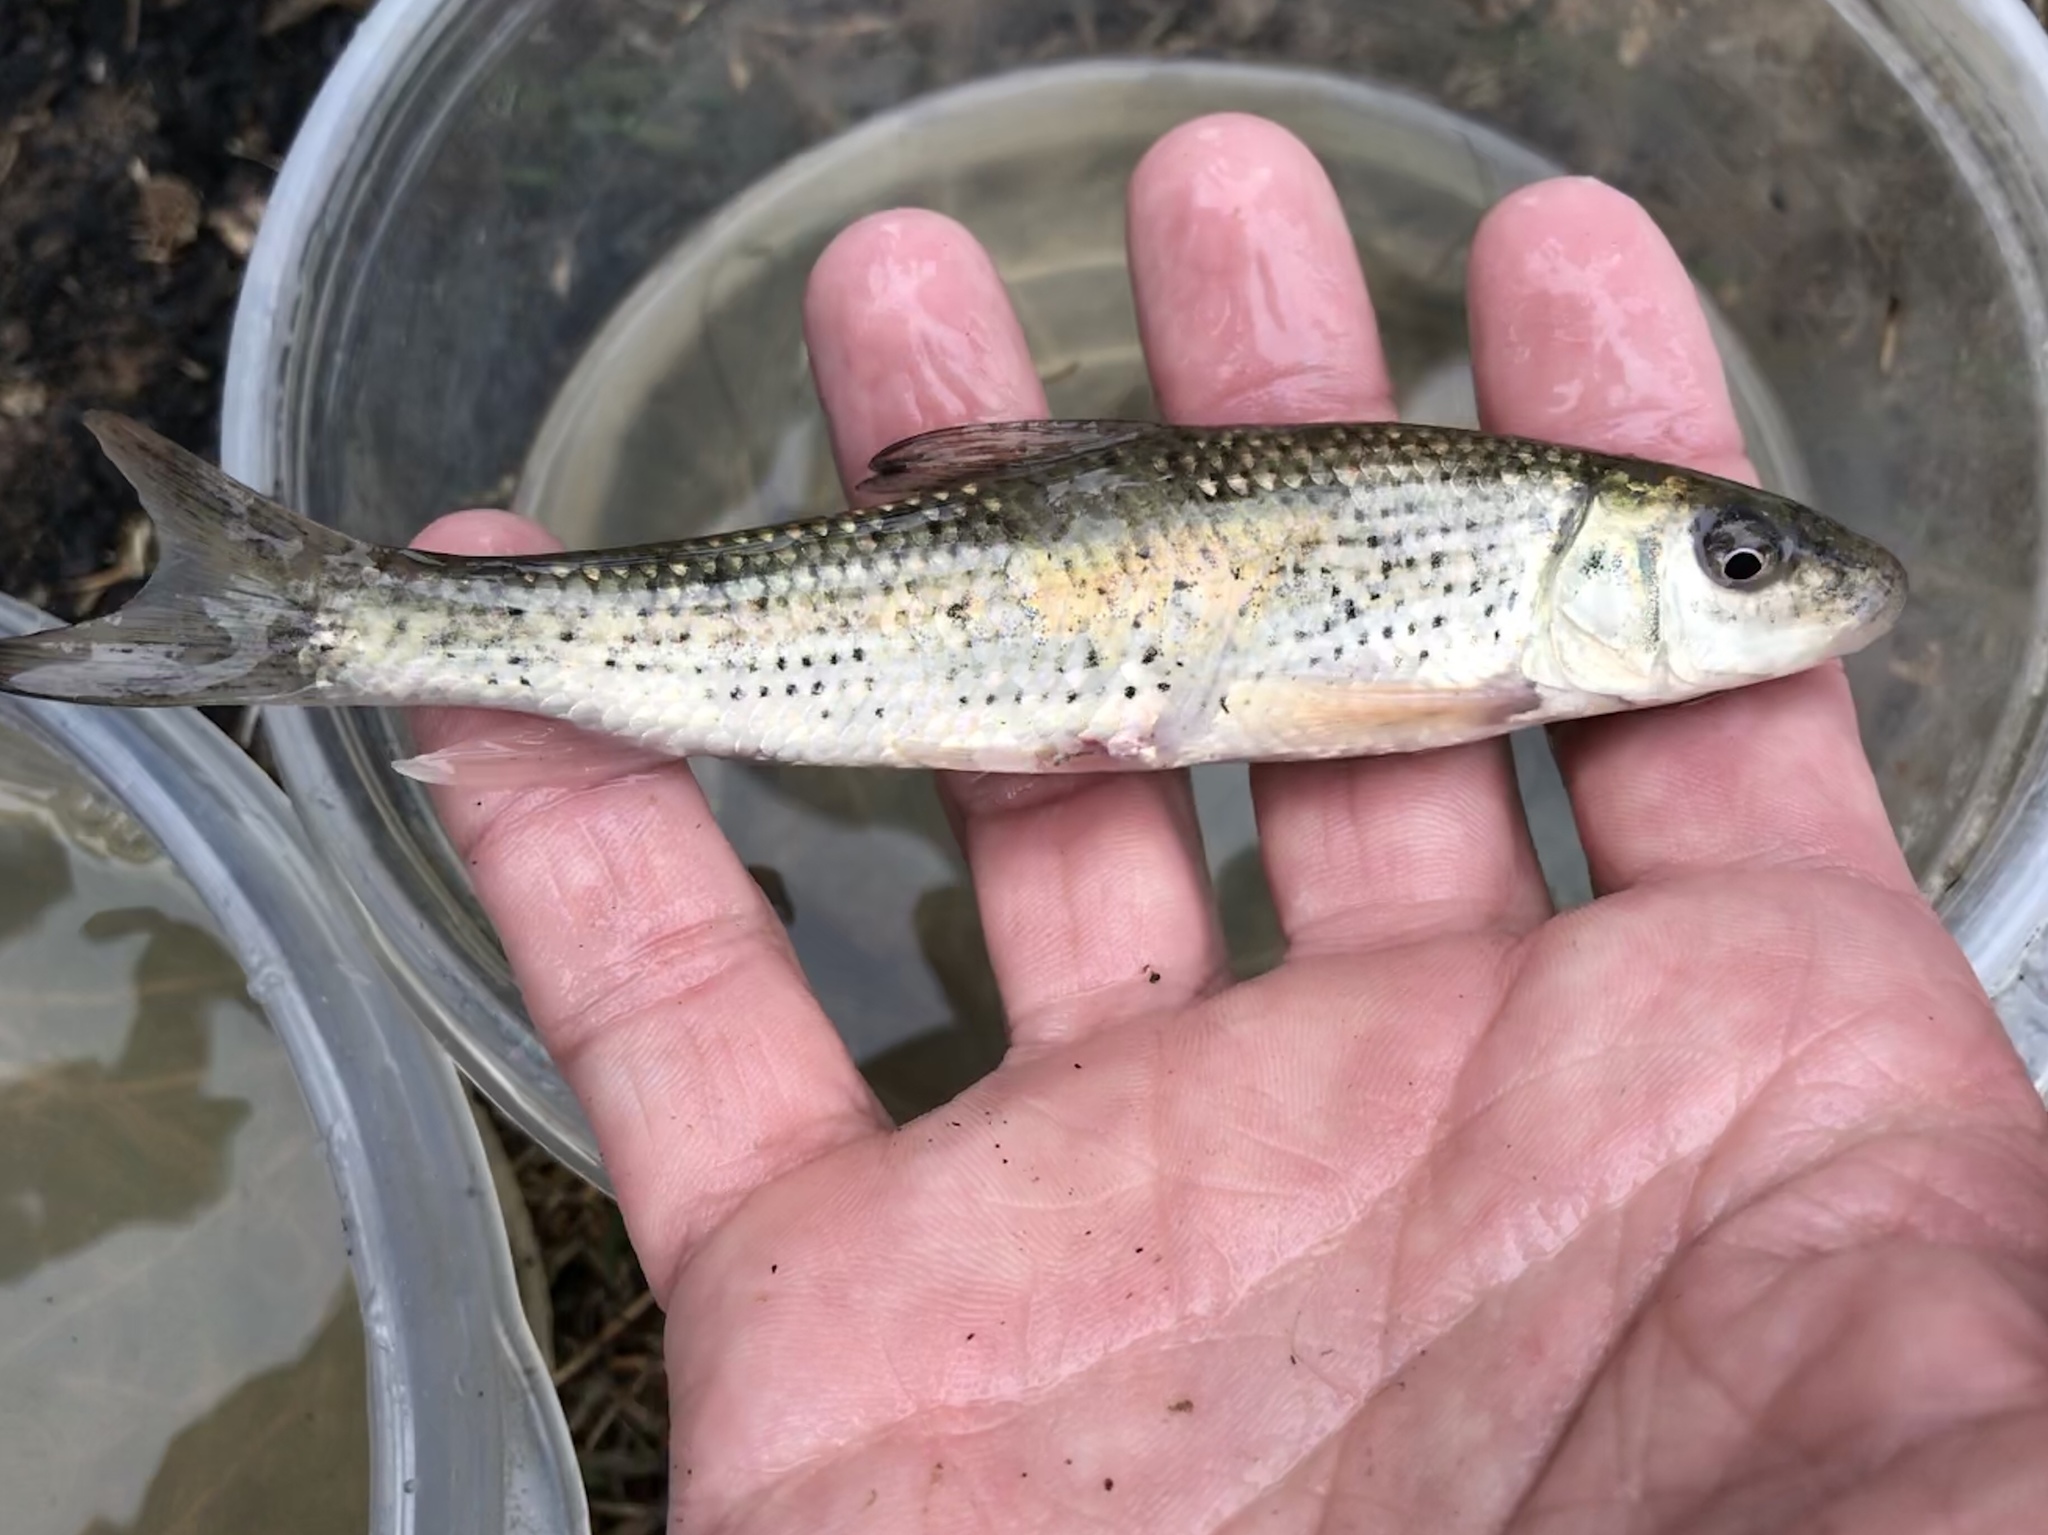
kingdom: Animalia
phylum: Chordata
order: Cypriniformes
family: Catostomidae
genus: Minytrema
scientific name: Minytrema melanops
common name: Spotted sucker
